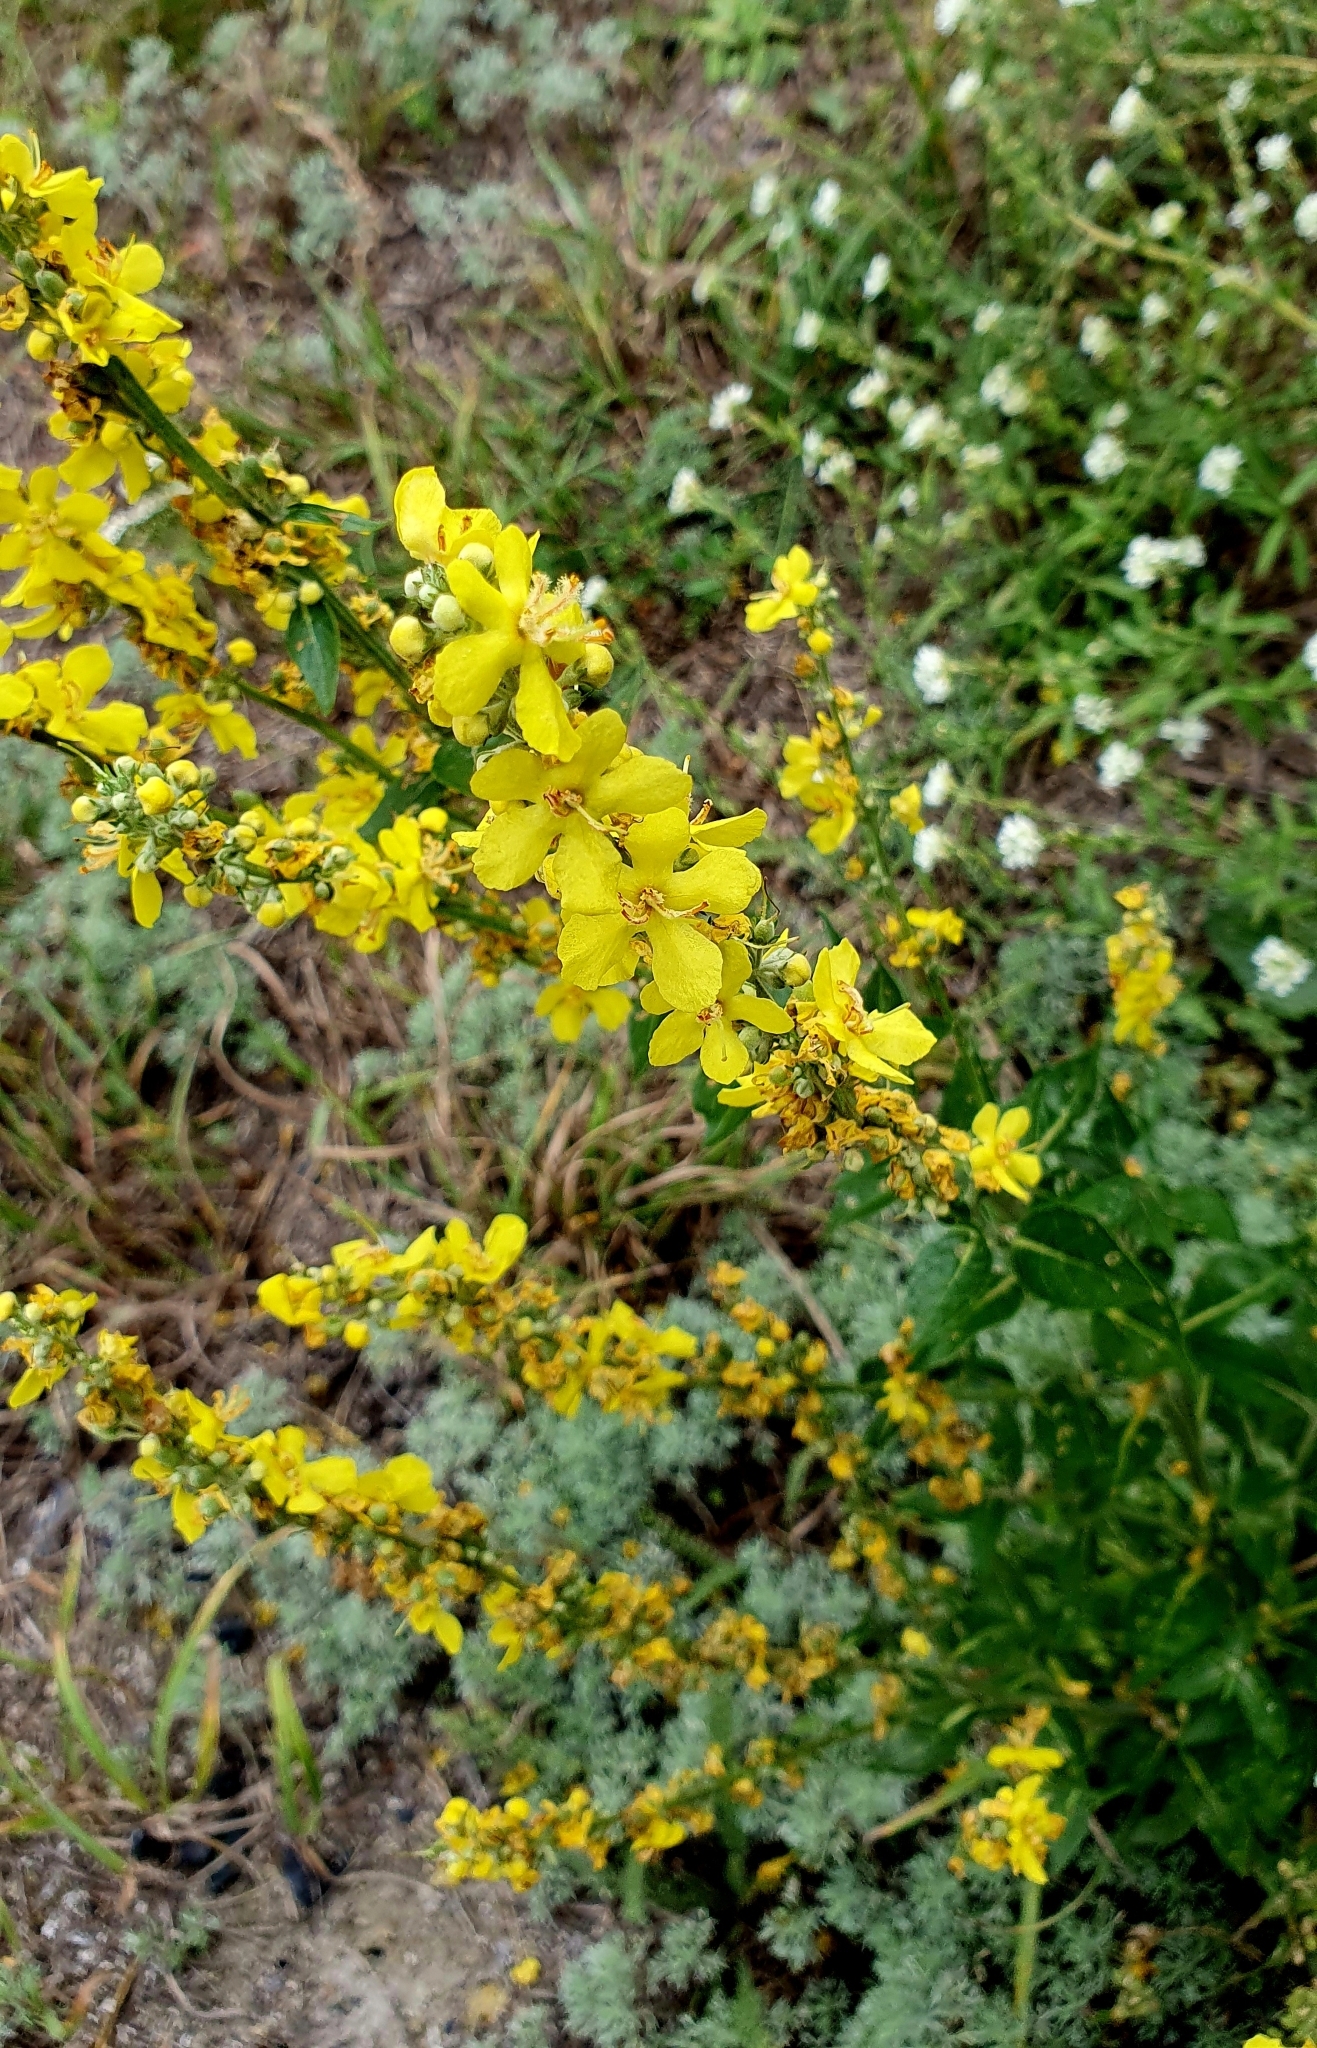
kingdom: Plantae
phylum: Tracheophyta
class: Magnoliopsida
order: Lamiales
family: Scrophulariaceae
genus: Verbascum
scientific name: Verbascum lychnitis
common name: White mullein
